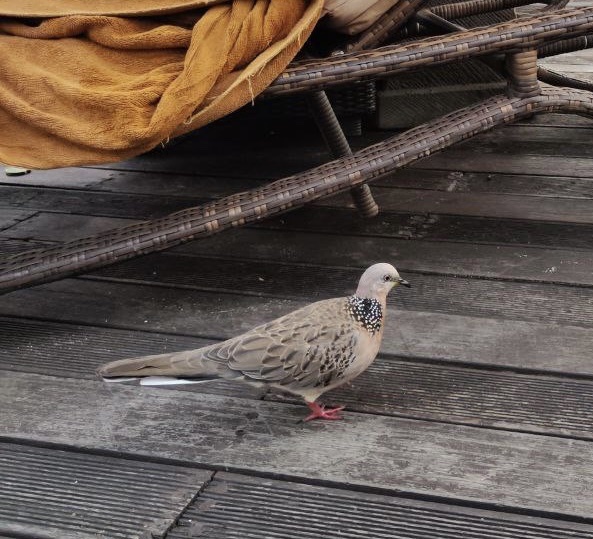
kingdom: Animalia
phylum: Chordata
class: Aves
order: Columbiformes
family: Columbidae
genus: Spilopelia
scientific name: Spilopelia chinensis
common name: Spotted dove
